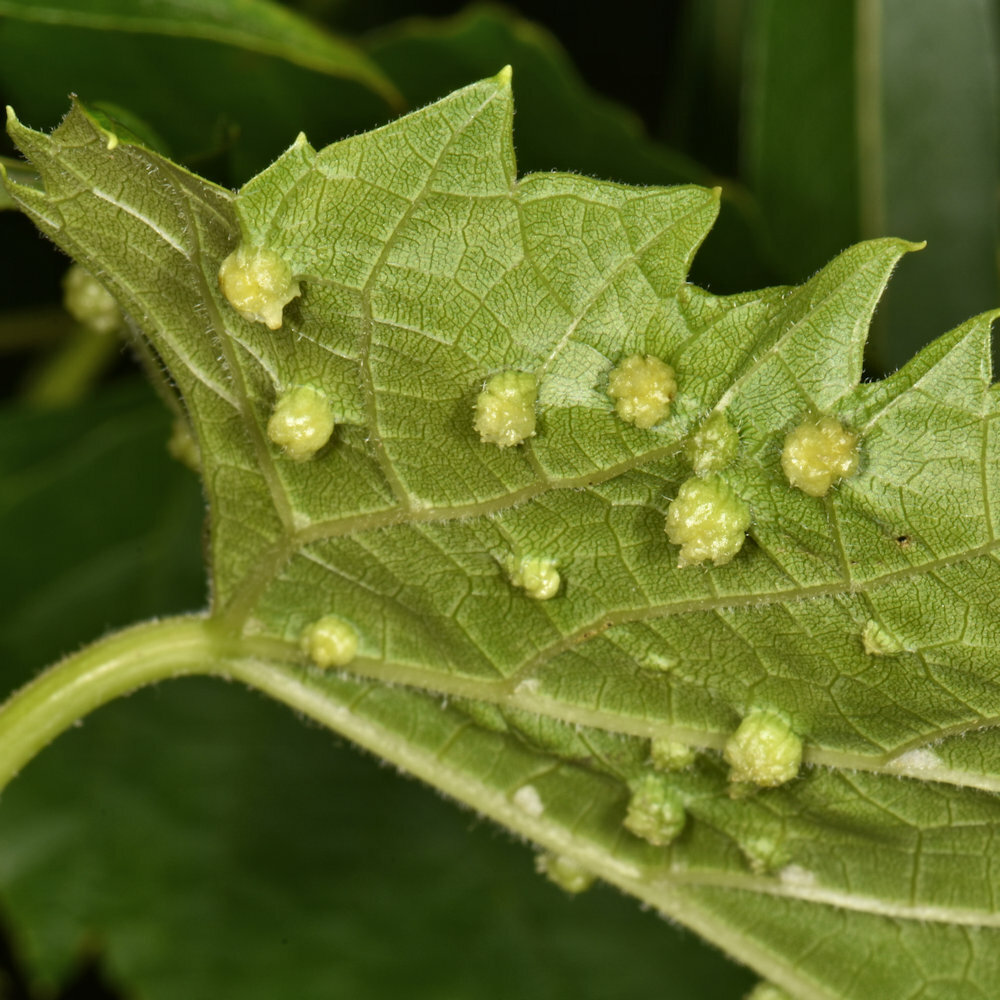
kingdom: Animalia
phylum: Arthropoda
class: Insecta
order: Hemiptera
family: Phylloxeridae
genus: Daktulosphaira
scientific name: Daktulosphaira vitifoliae
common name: Grape phylloxera
